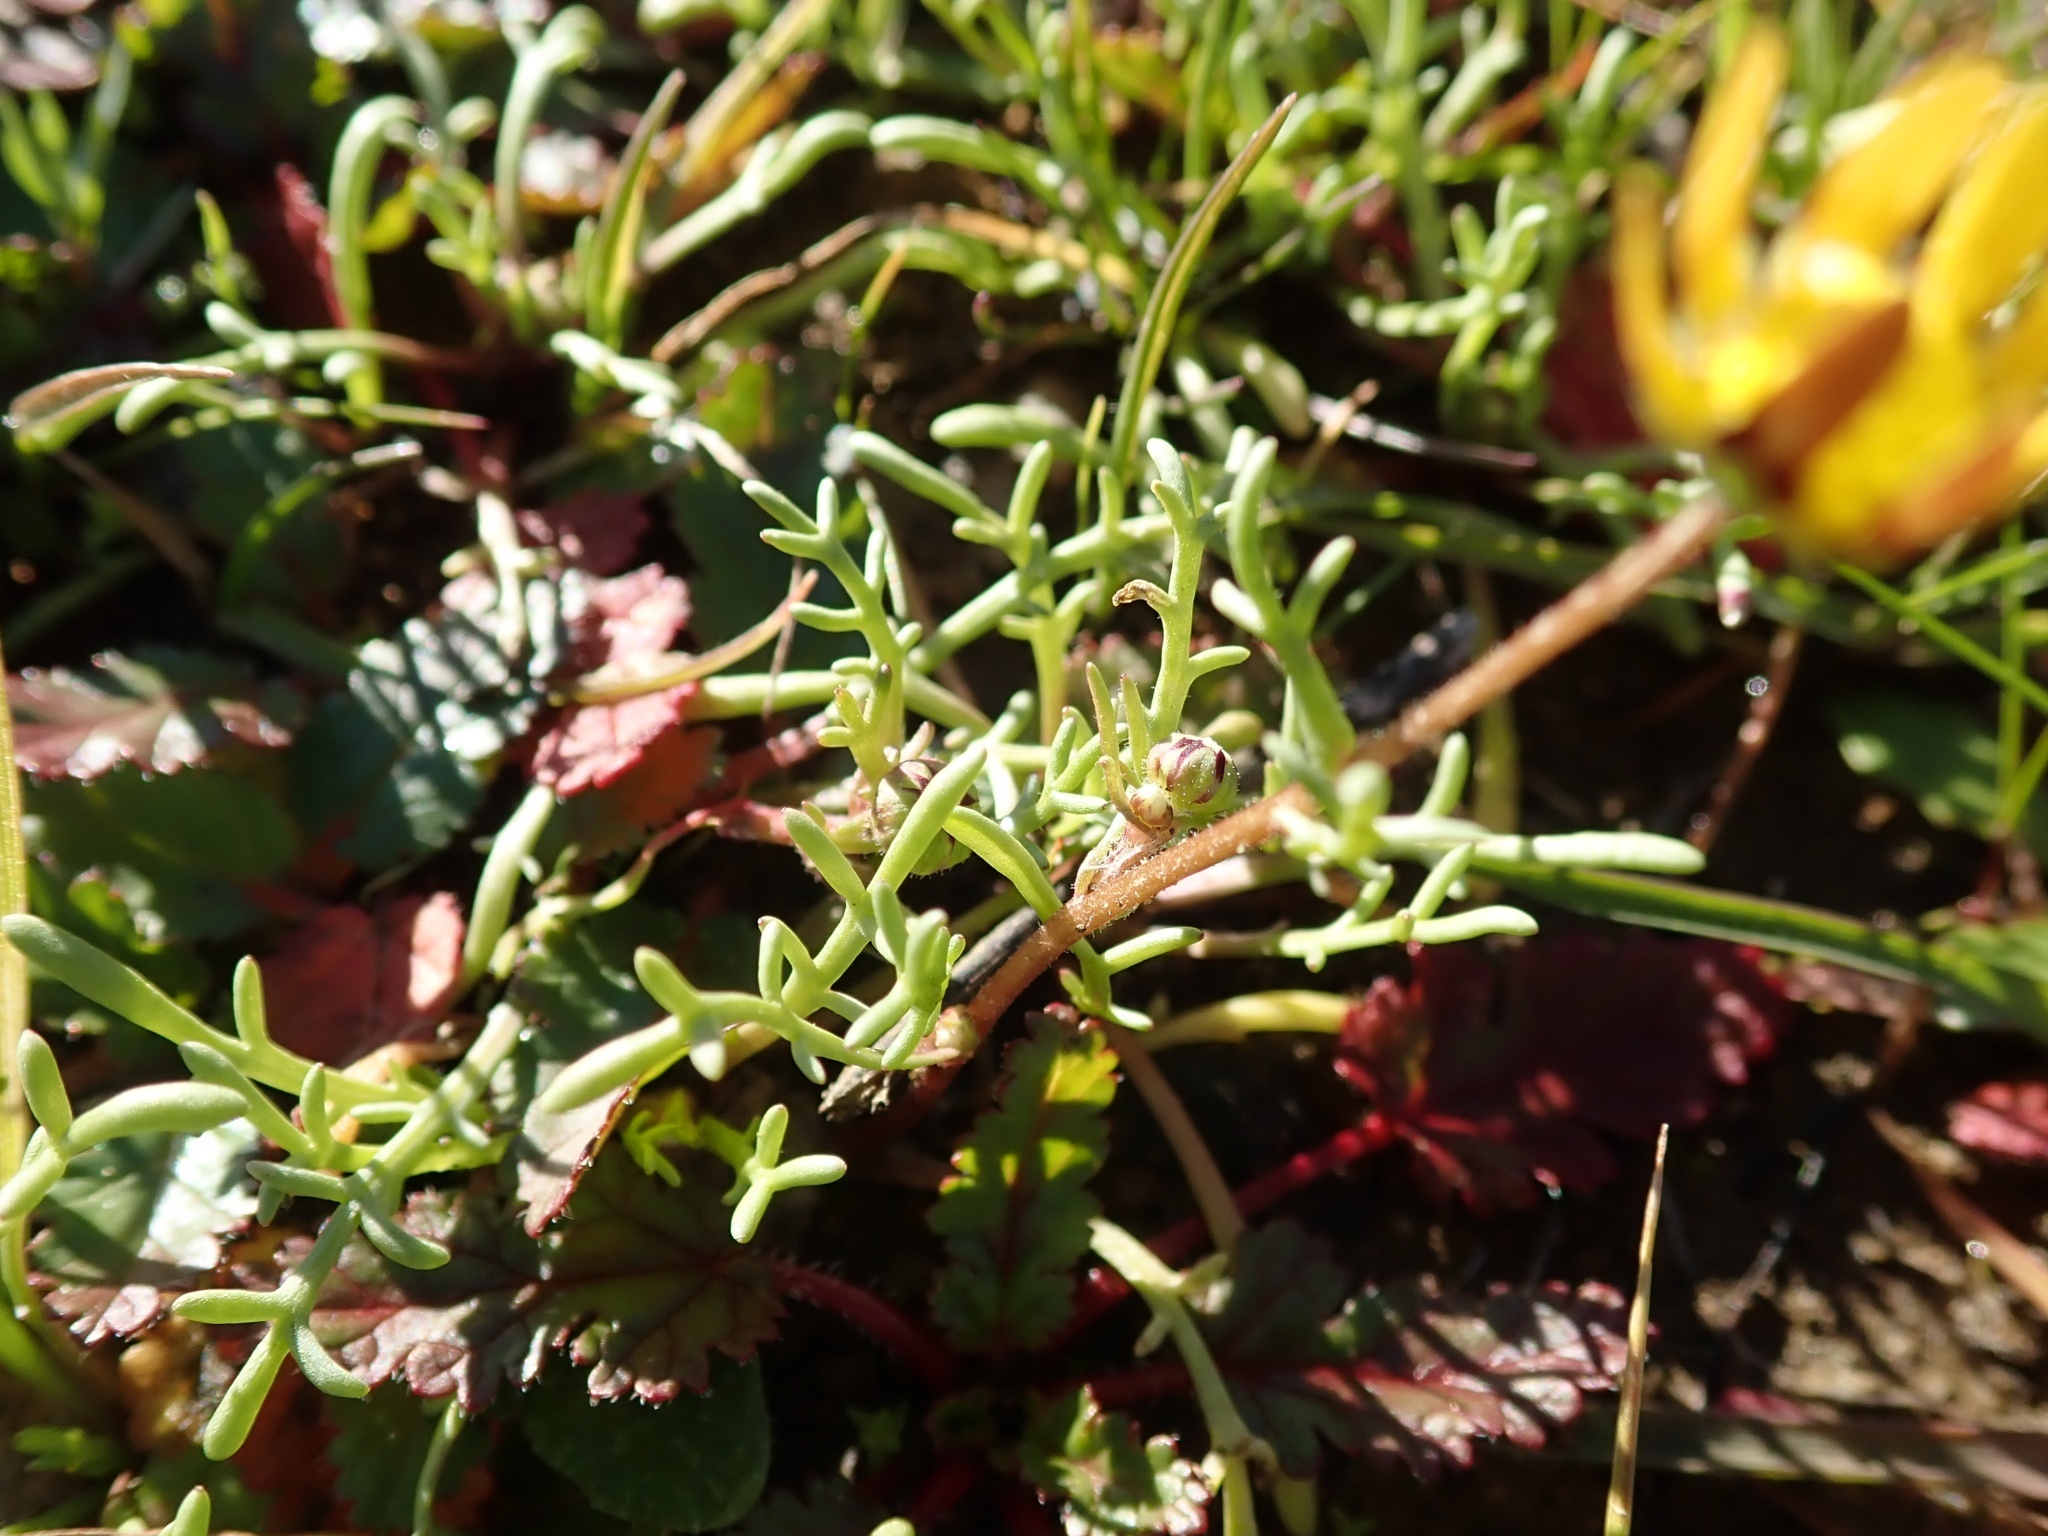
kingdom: Plantae
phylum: Tracheophyta
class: Magnoliopsida
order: Asterales
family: Asteraceae
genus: Blennosperma
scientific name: Blennosperma nanum
